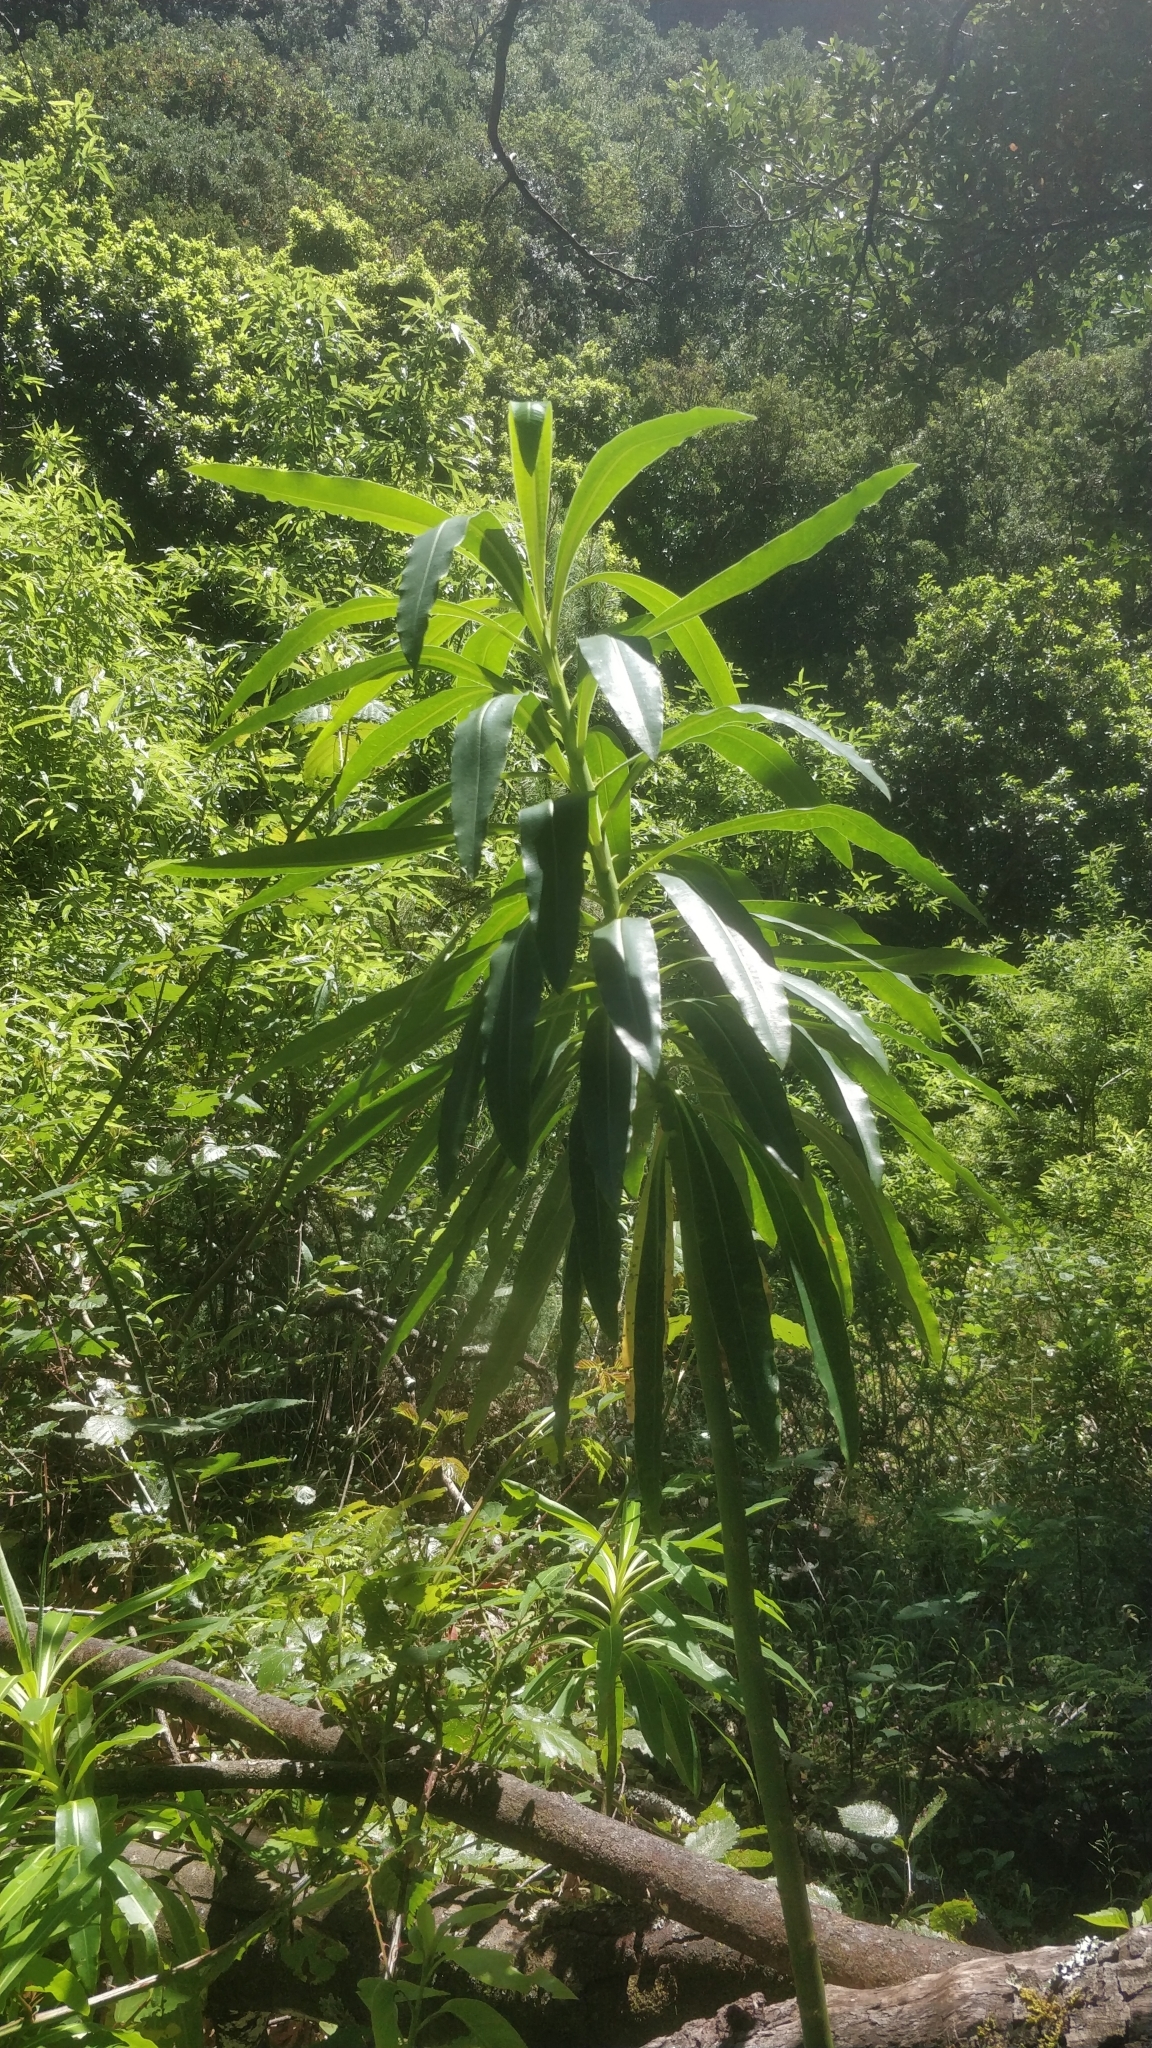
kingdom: Plantae
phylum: Tracheophyta
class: Magnoliopsida
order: Malpighiales
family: Euphorbiaceae
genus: Euphorbia
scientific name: Euphorbia mellifera
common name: Canary spurge
